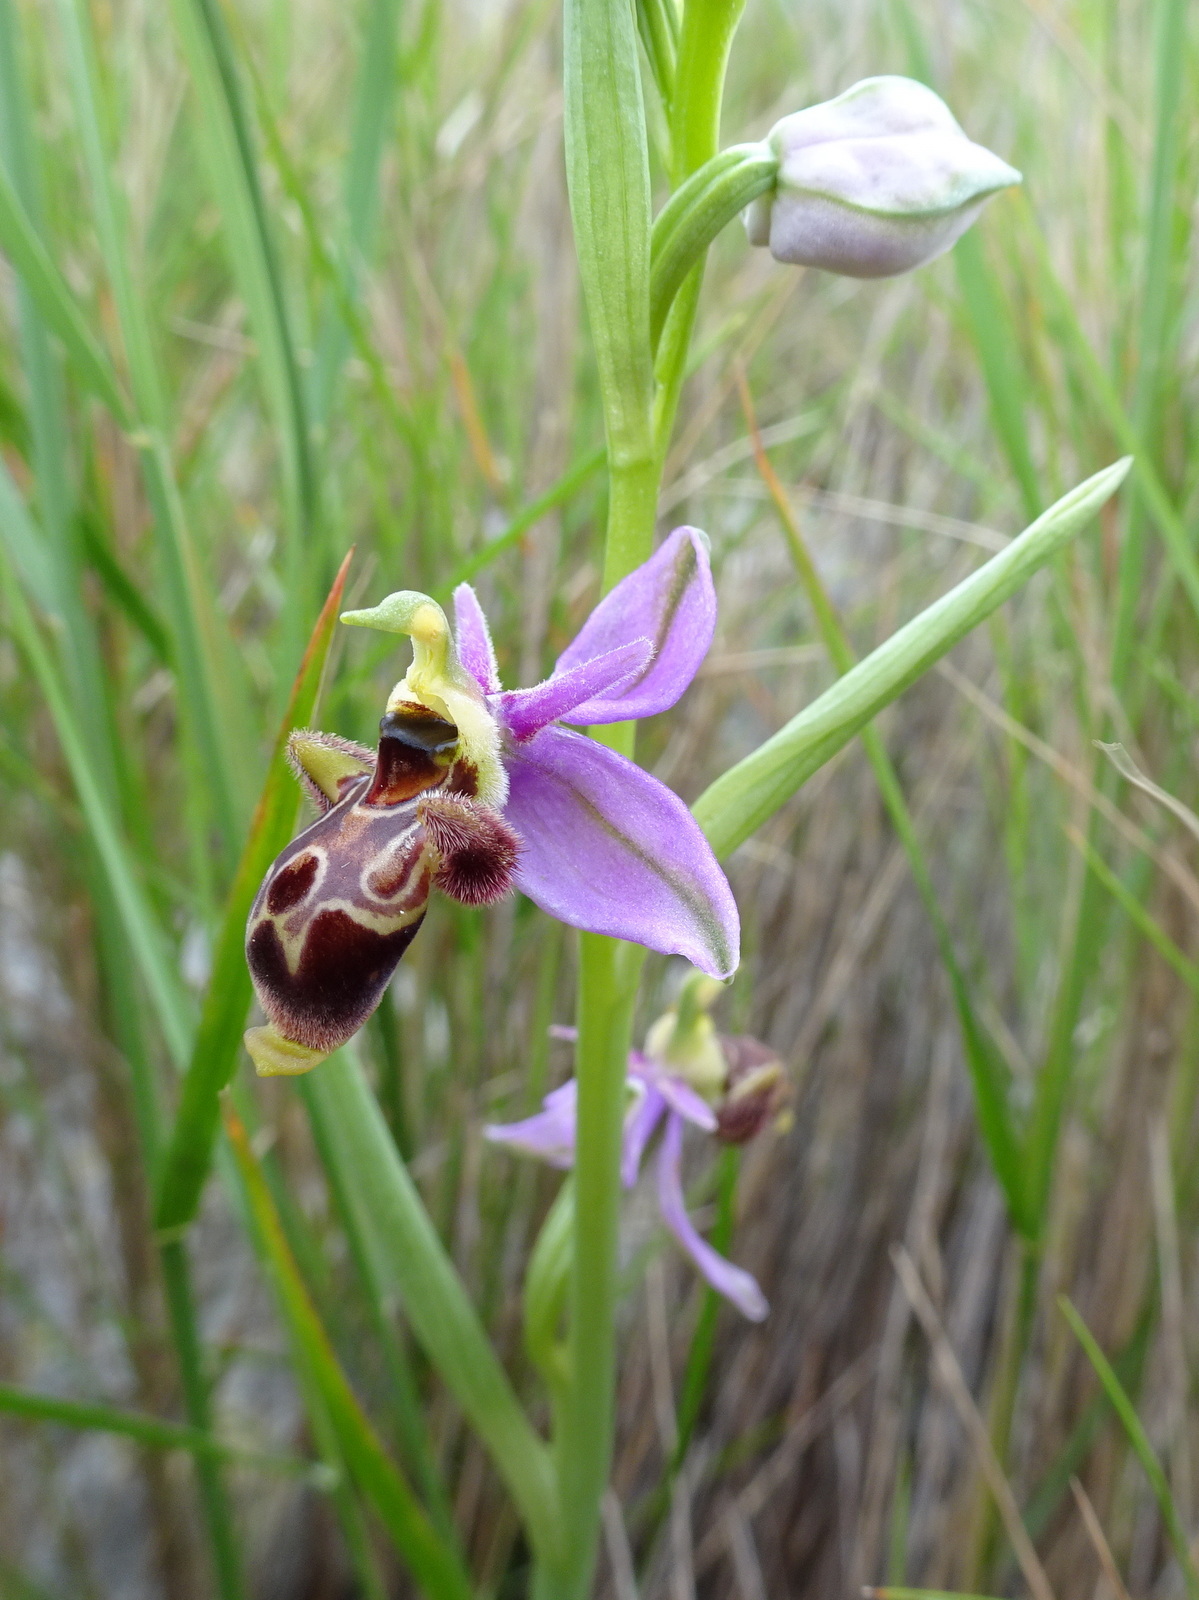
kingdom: Plantae
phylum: Tracheophyta
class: Liliopsida
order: Asparagales
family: Orchidaceae
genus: Ophrys
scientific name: Ophrys scolopax
